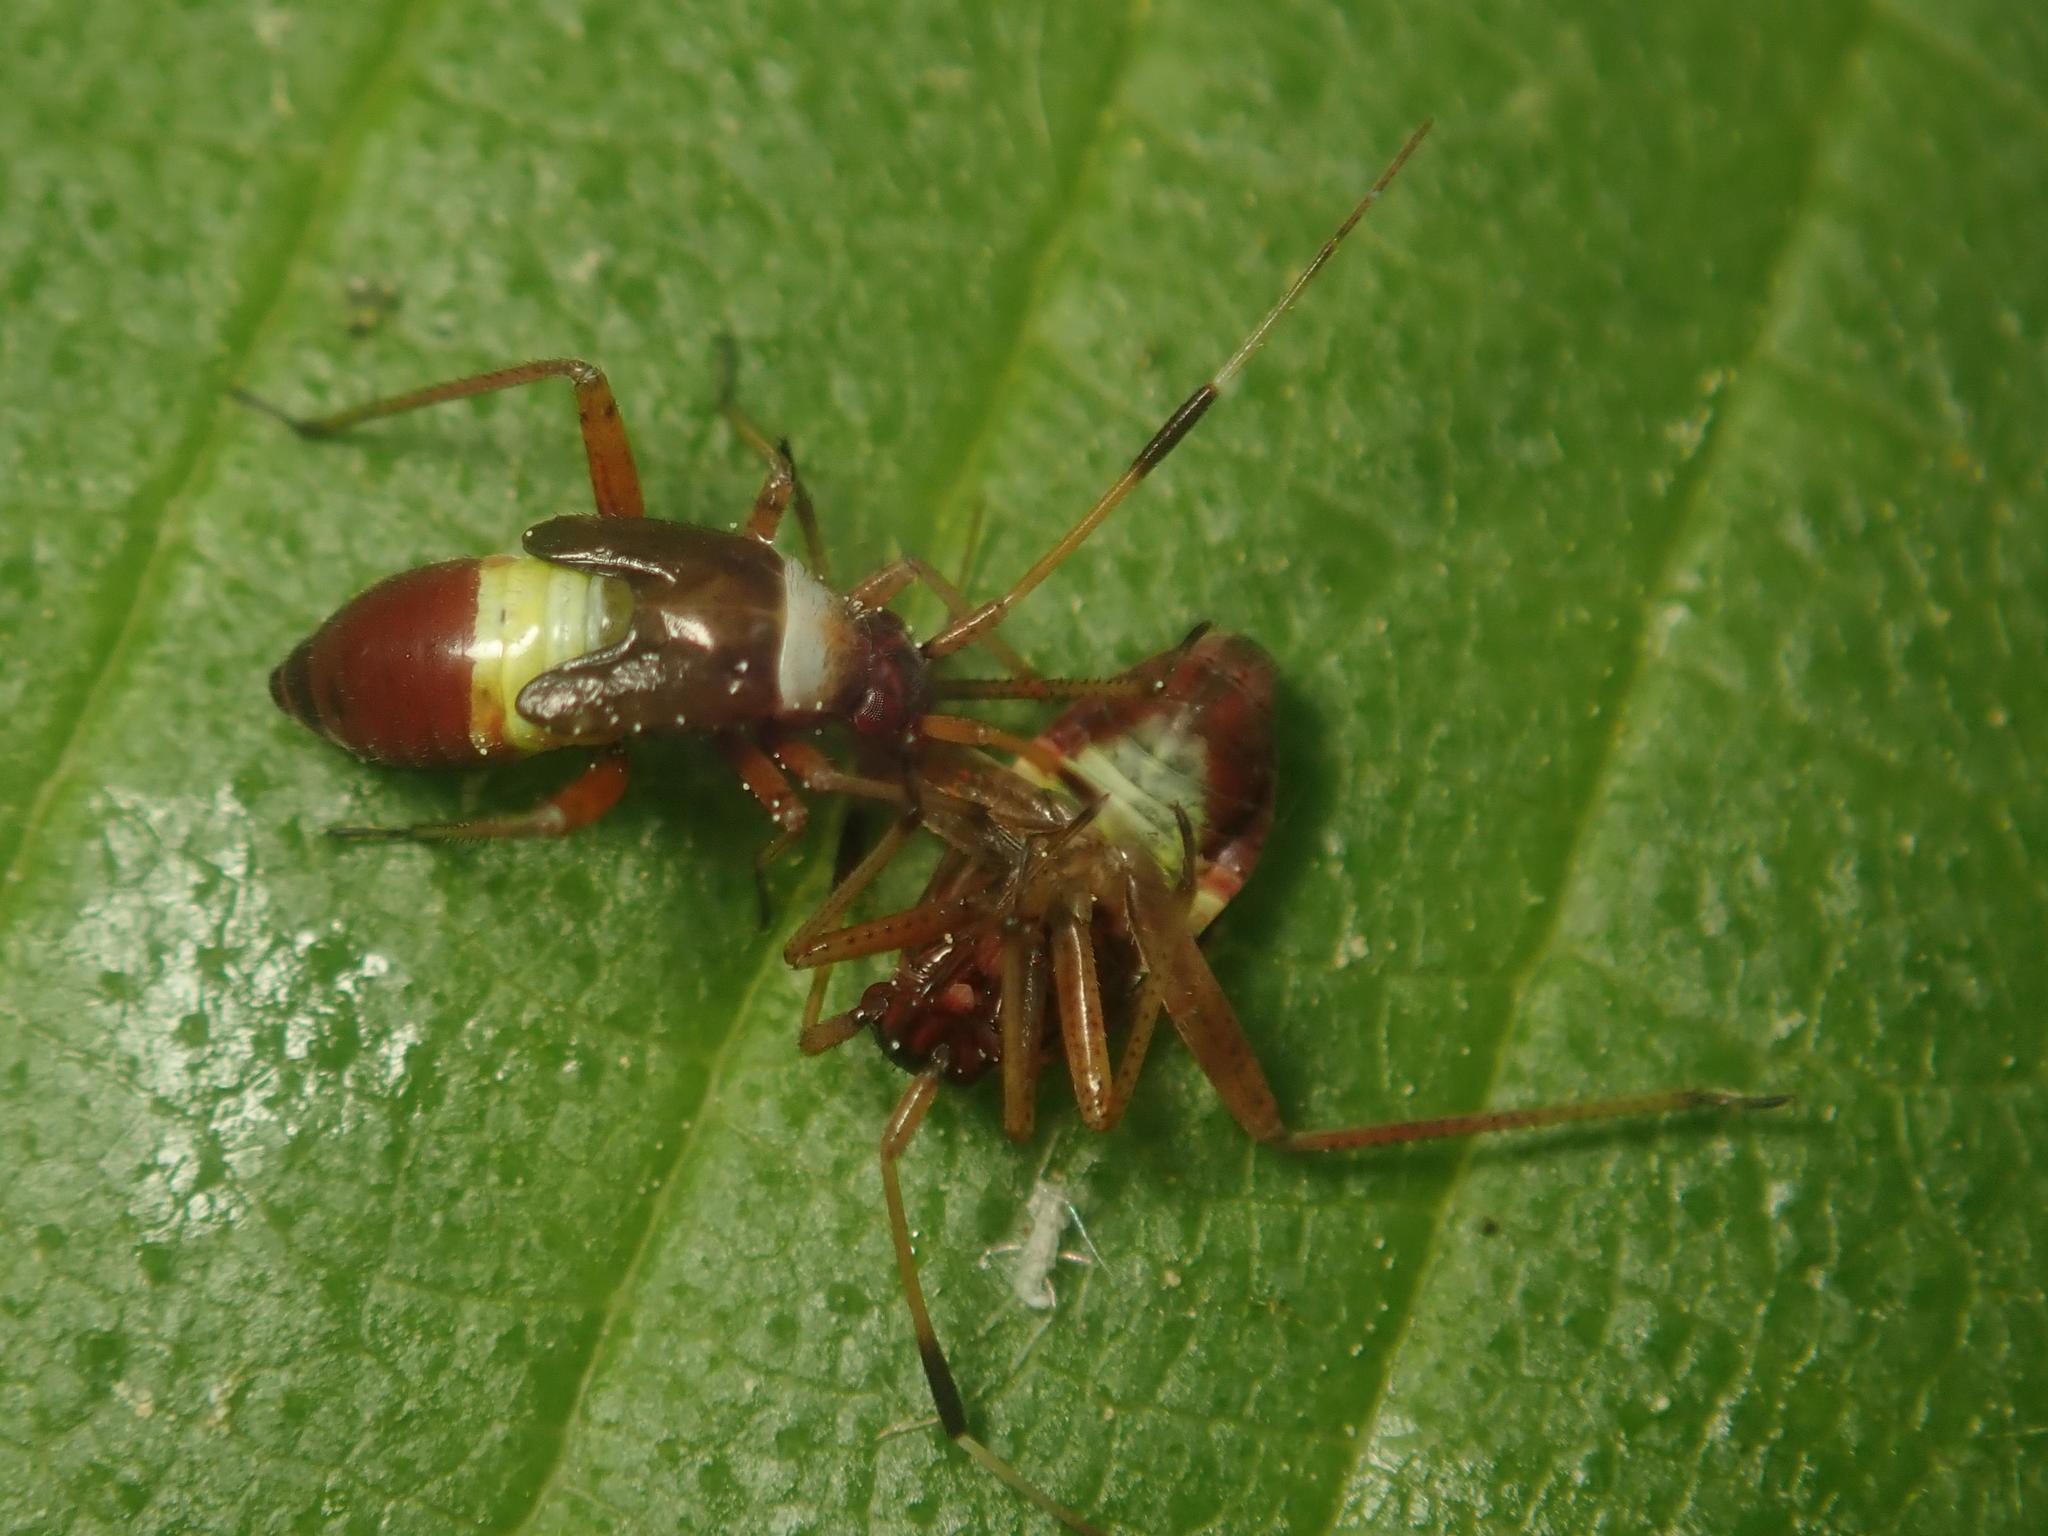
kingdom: Animalia
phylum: Arthropoda
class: Insecta
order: Hemiptera
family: Miridae
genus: Closterotomus
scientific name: Closterotomus biclavatus
